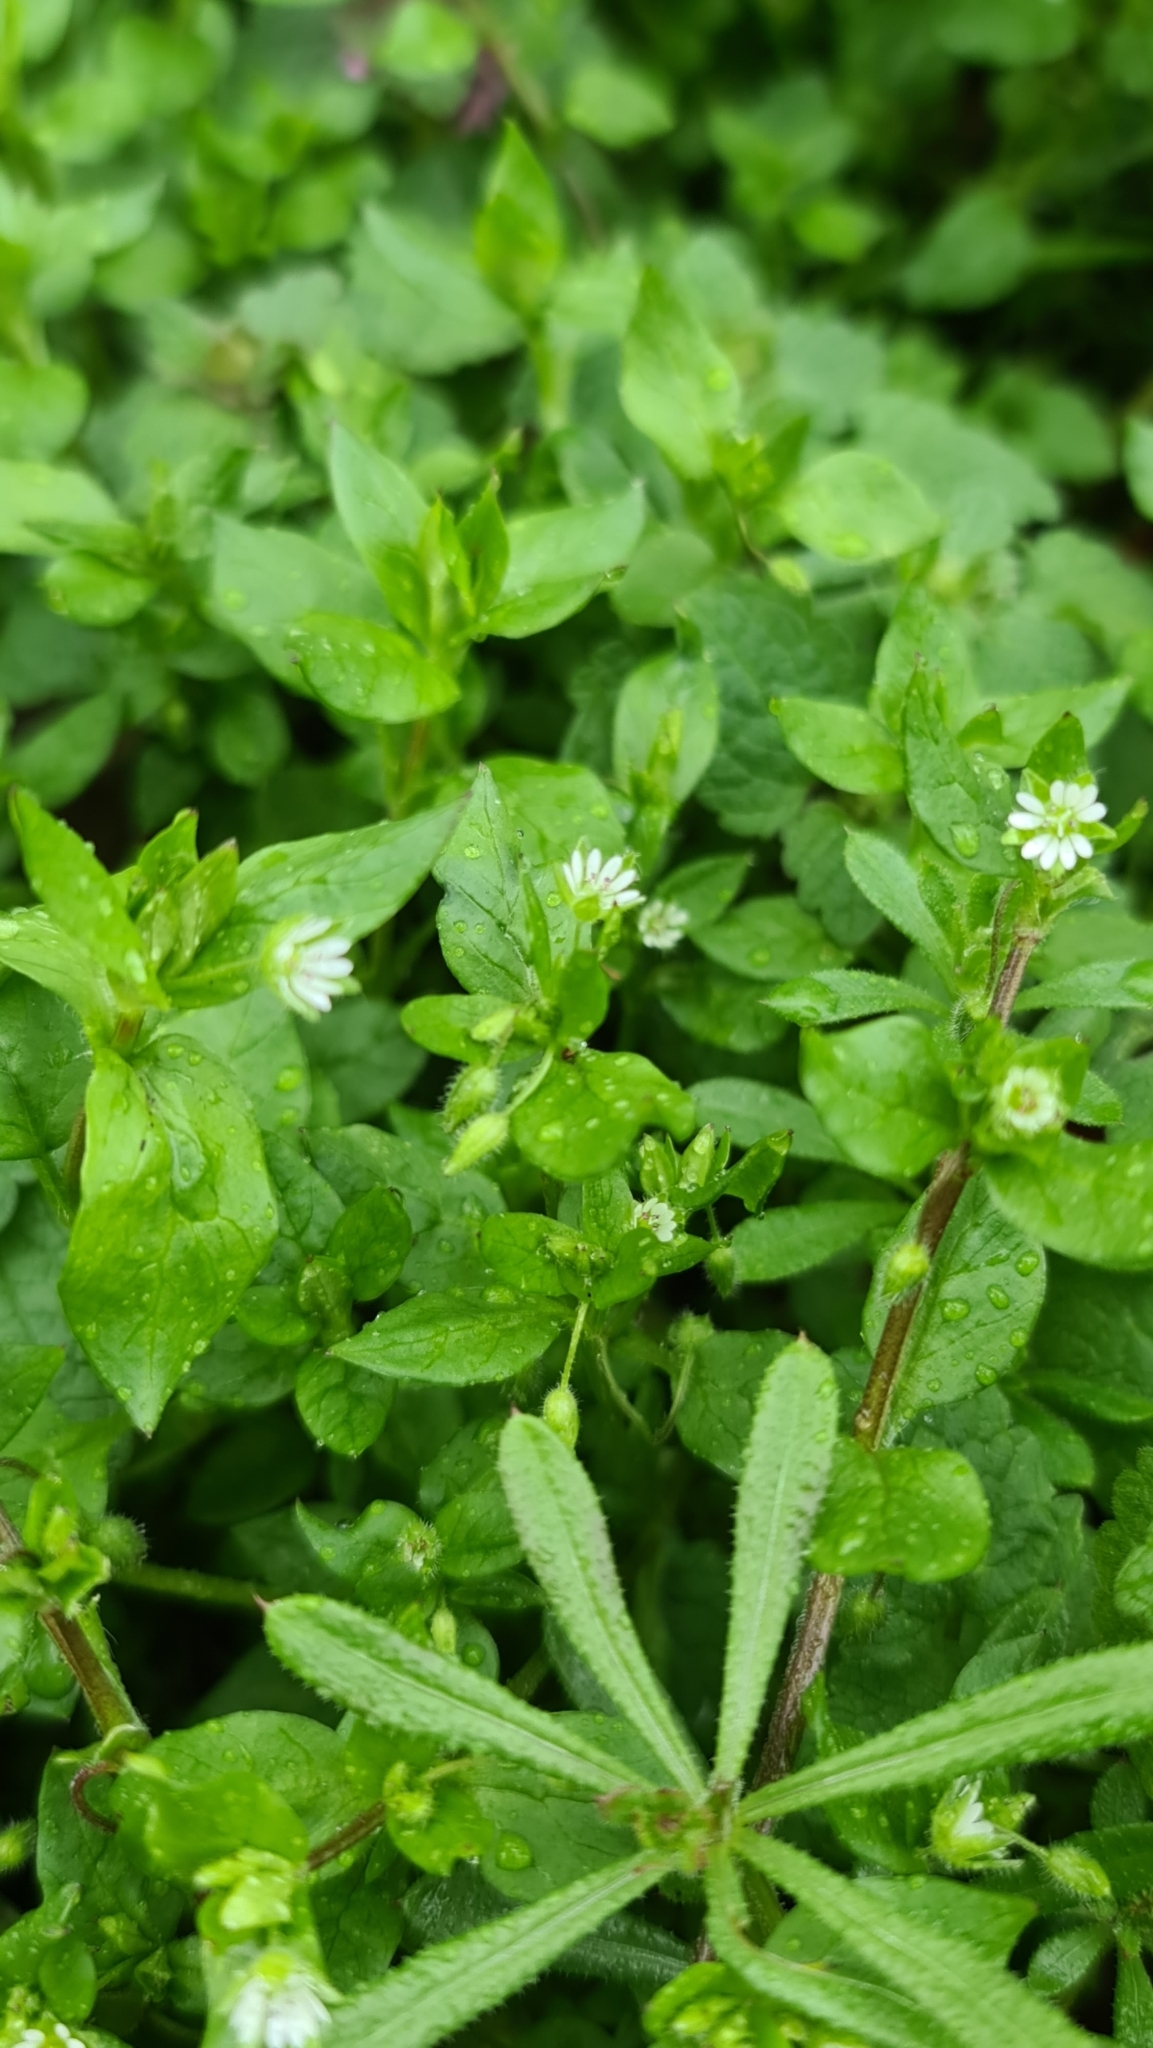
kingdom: Plantae
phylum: Tracheophyta
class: Magnoliopsida
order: Caryophyllales
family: Caryophyllaceae
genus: Stellaria
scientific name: Stellaria media
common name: Common chickweed
